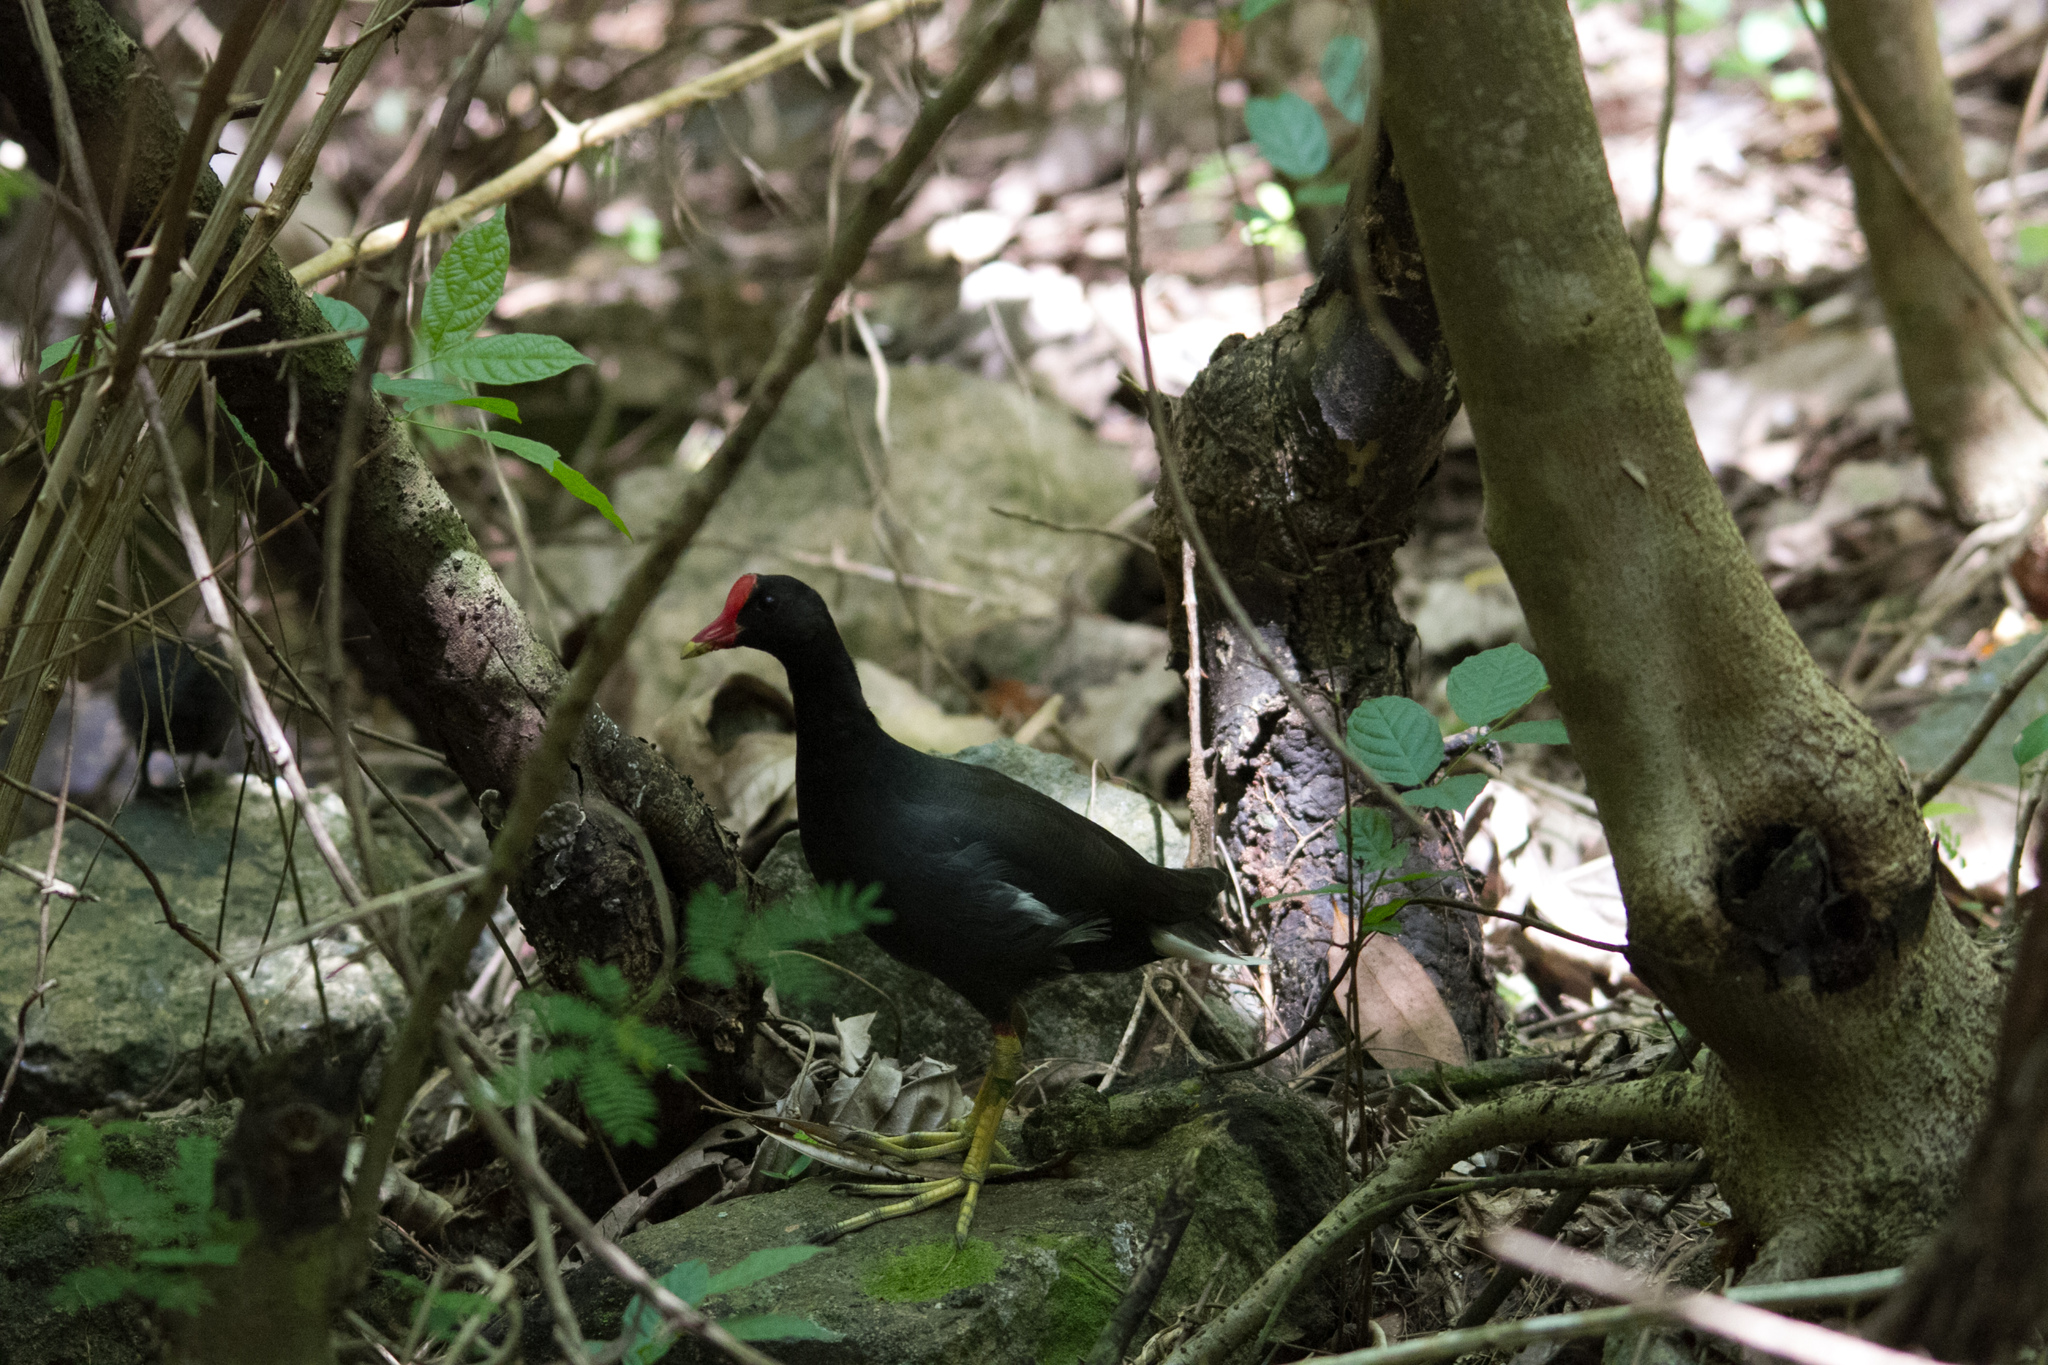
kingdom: Animalia
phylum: Chordata
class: Aves
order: Gruiformes
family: Rallidae
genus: Gallinula
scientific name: Gallinula chloropus
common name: Common moorhen
